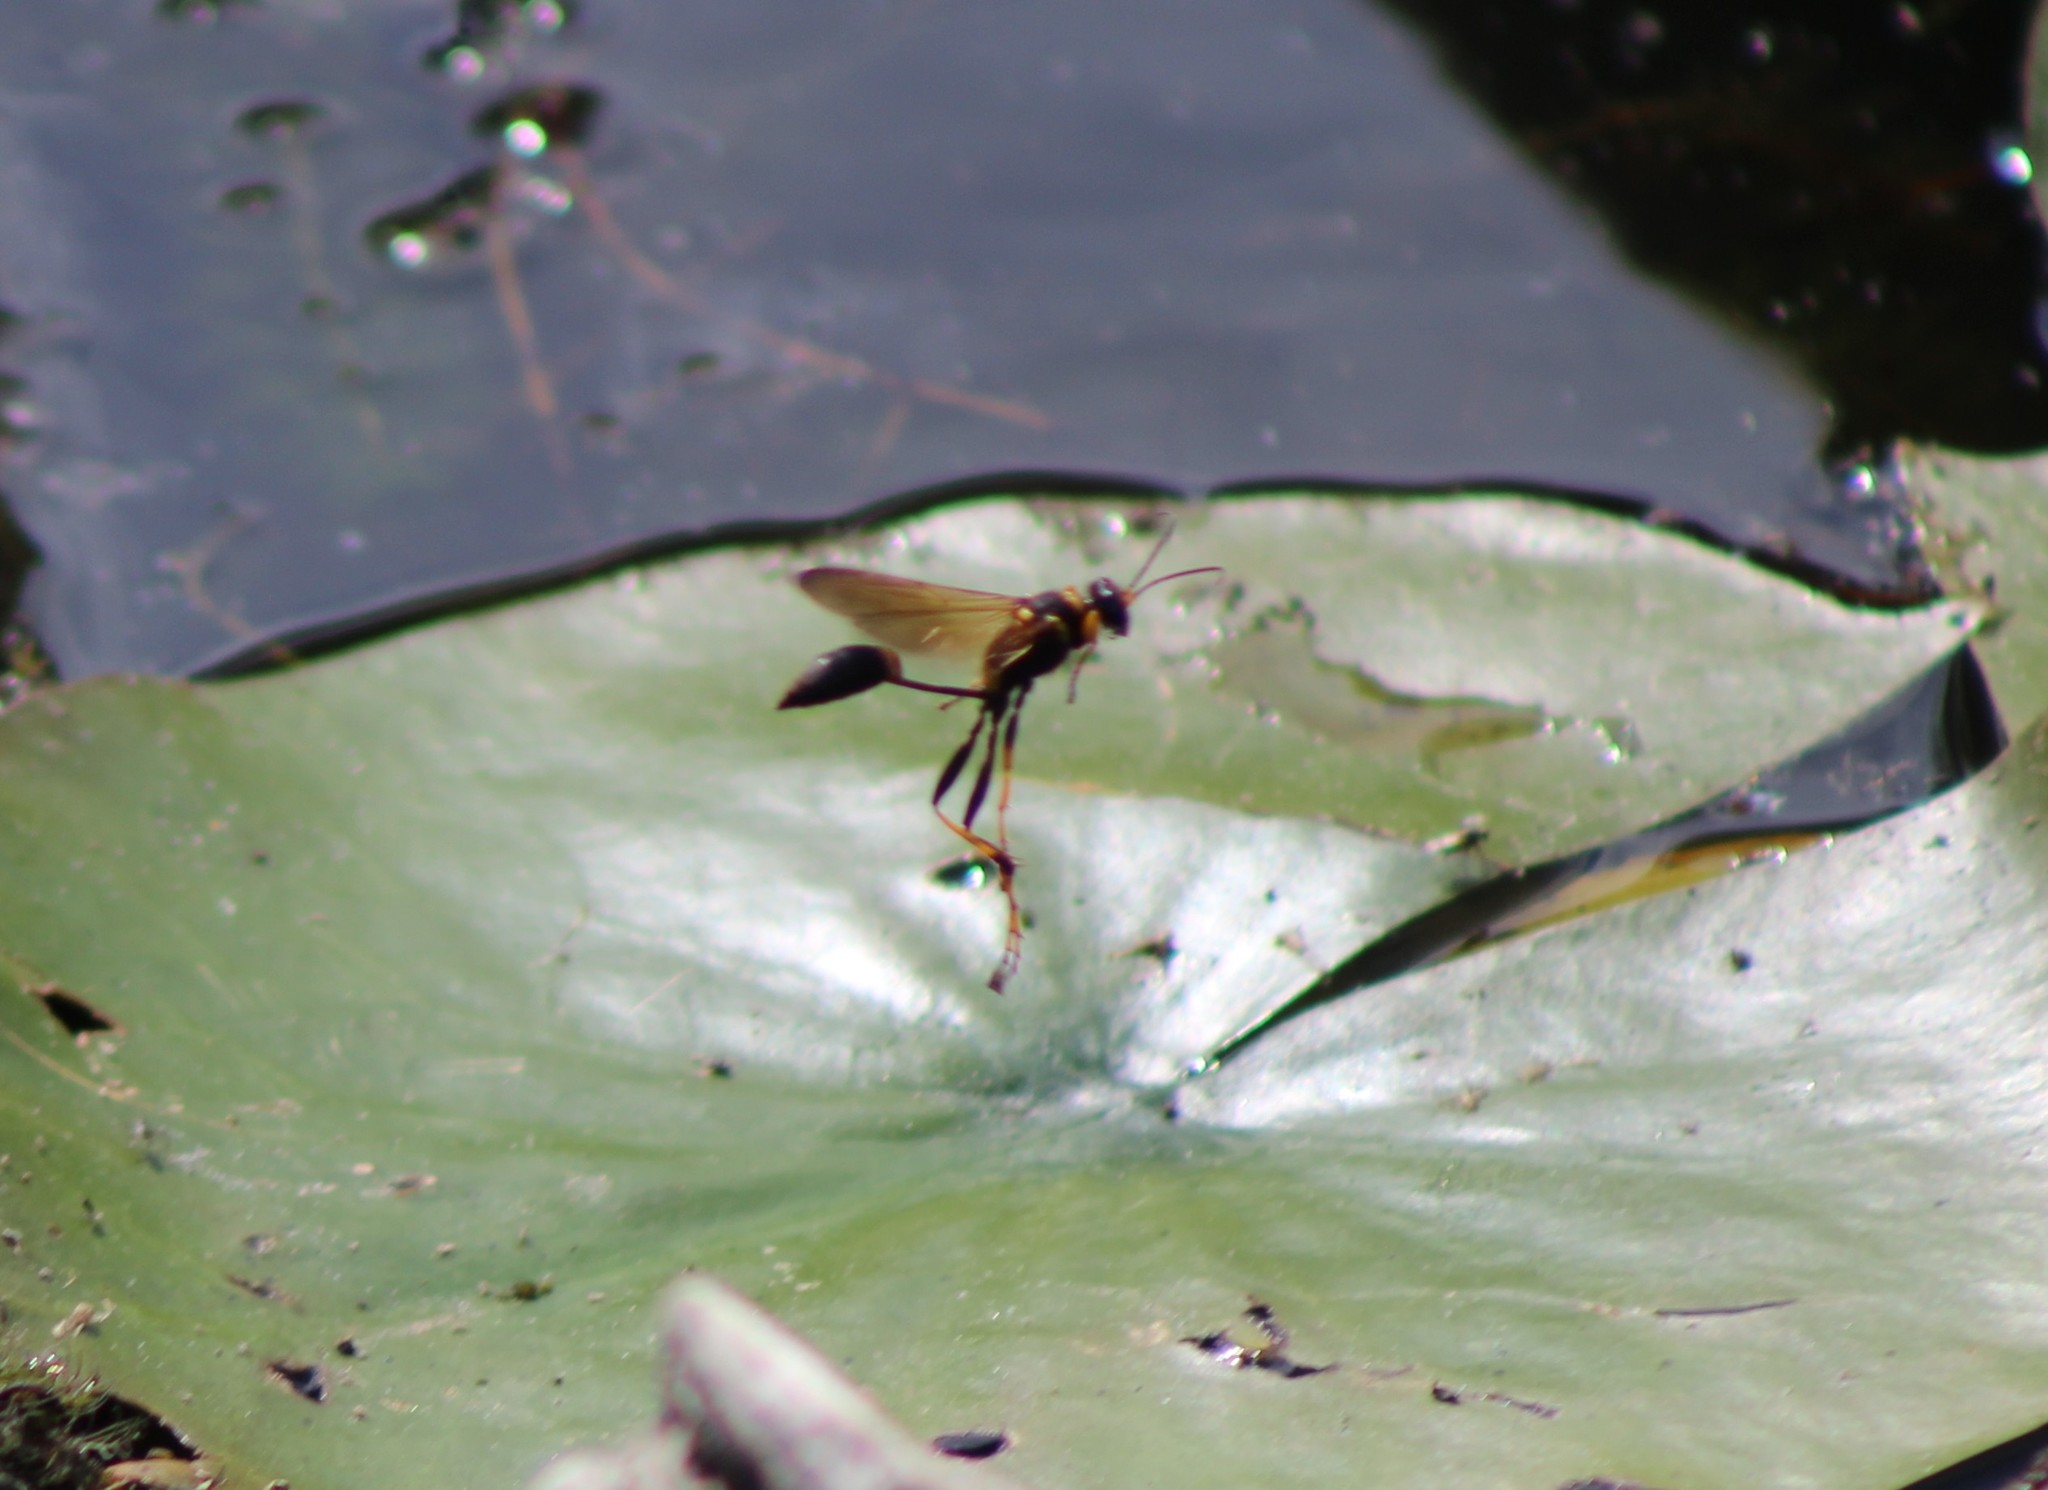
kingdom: Animalia
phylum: Arthropoda
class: Insecta
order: Hymenoptera
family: Sphecidae
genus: Sceliphron
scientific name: Sceliphron caementarium
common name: Mud dauber
